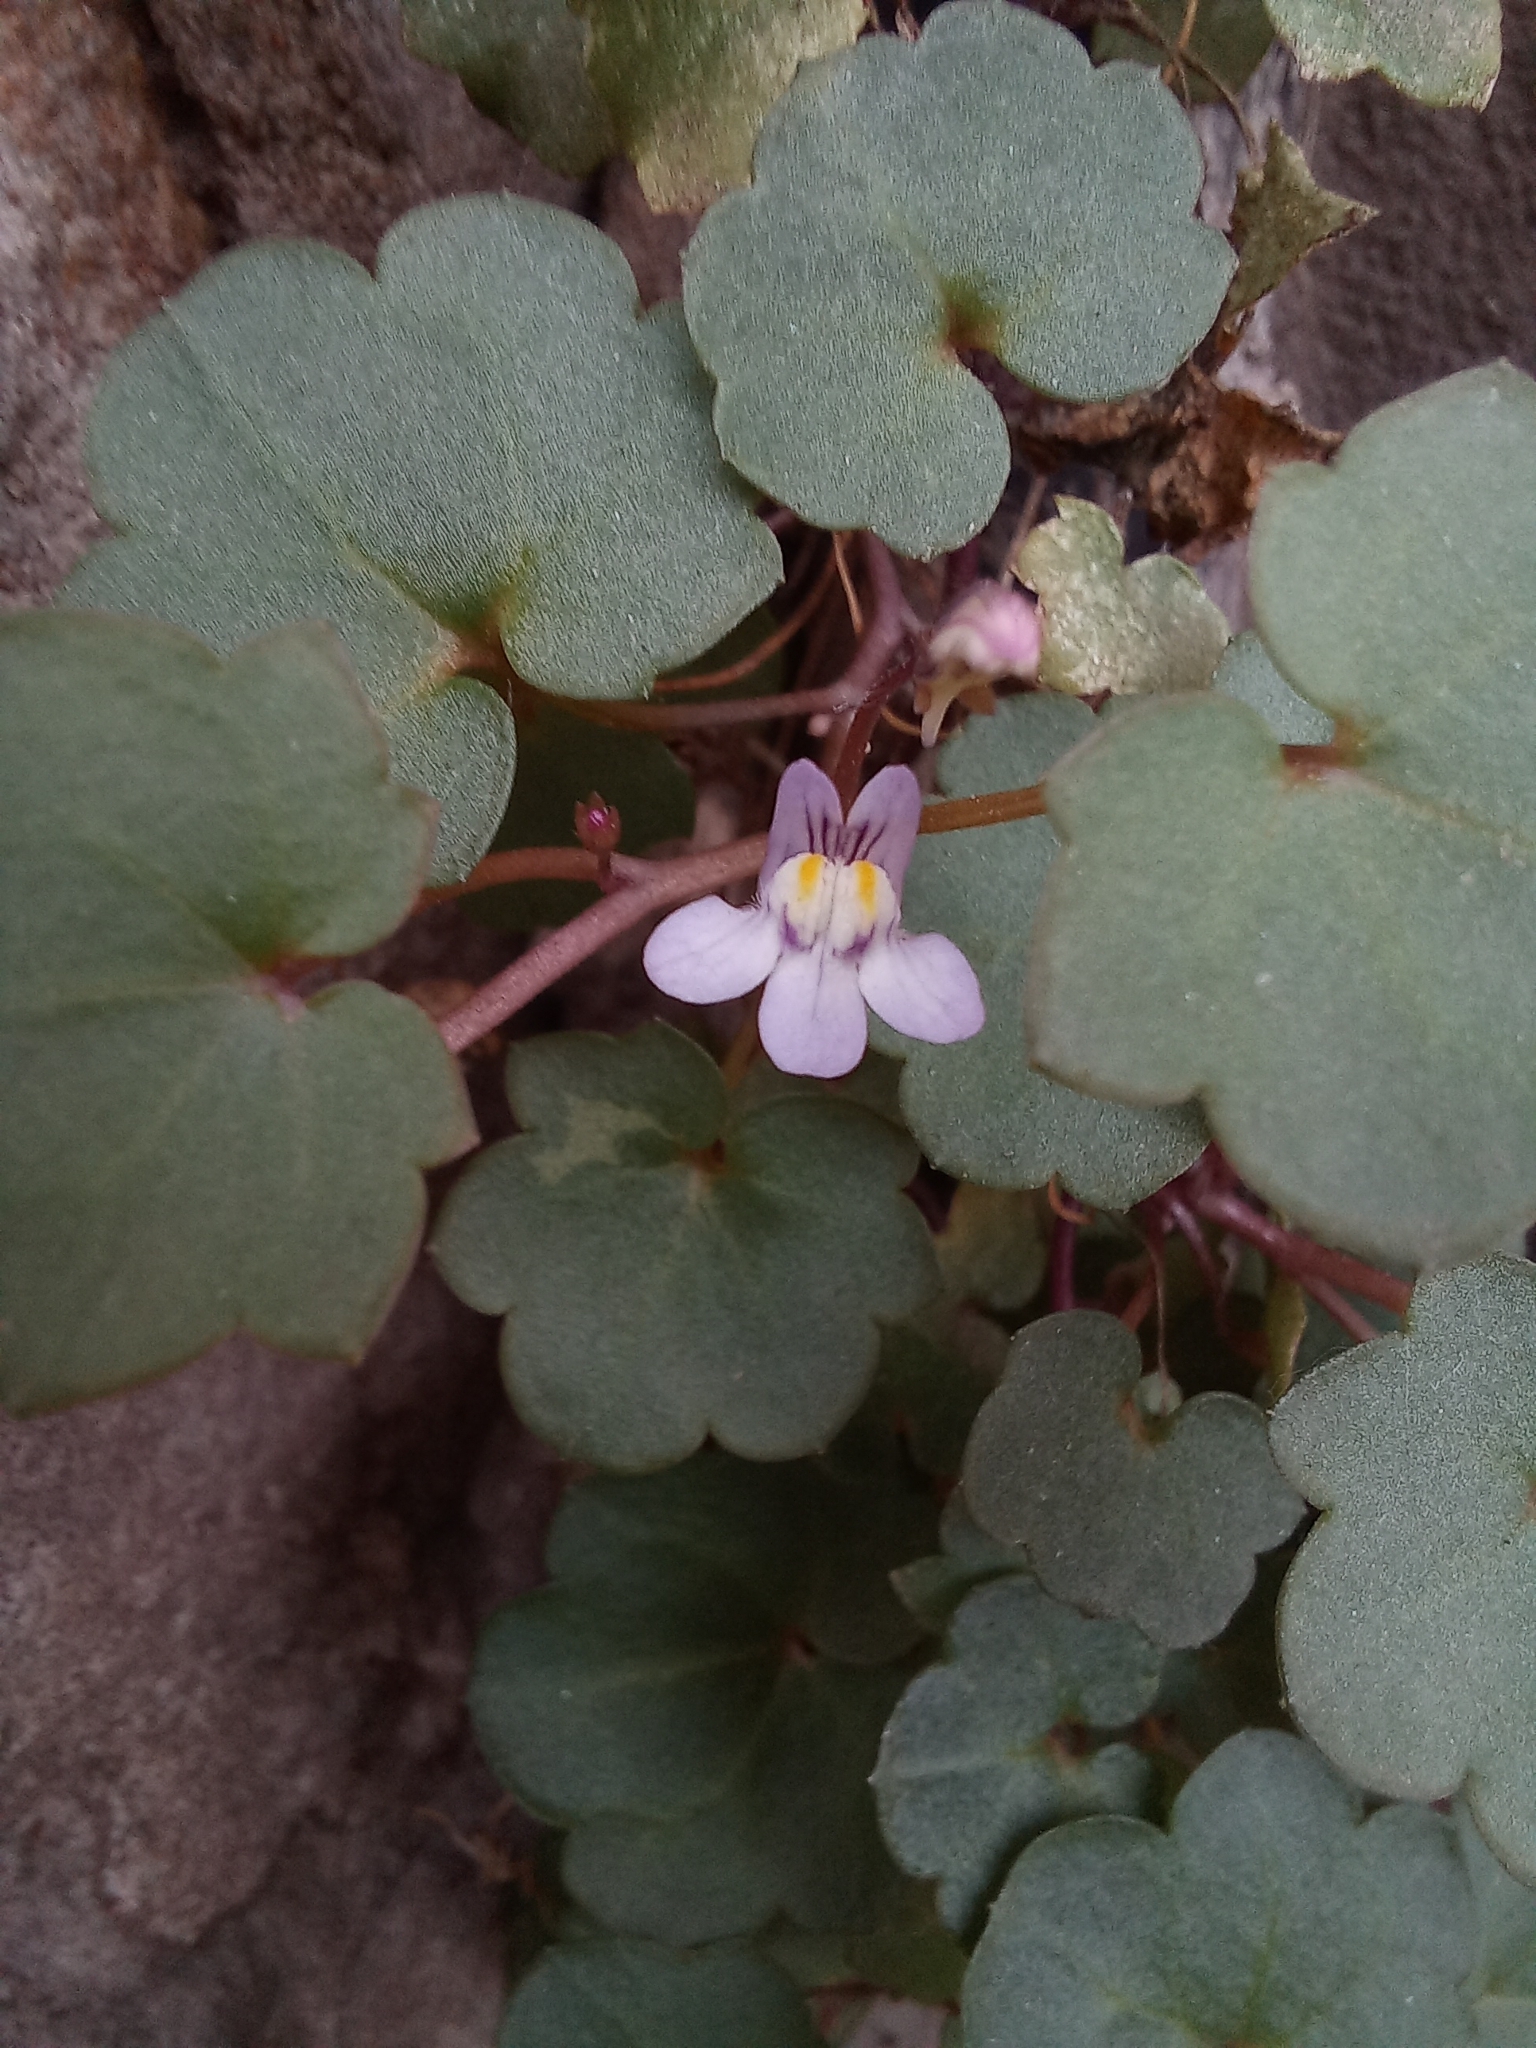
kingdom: Plantae
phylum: Tracheophyta
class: Magnoliopsida
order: Lamiales
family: Plantaginaceae
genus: Cymbalaria
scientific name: Cymbalaria muralis
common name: Ivy-leaved toadflax
